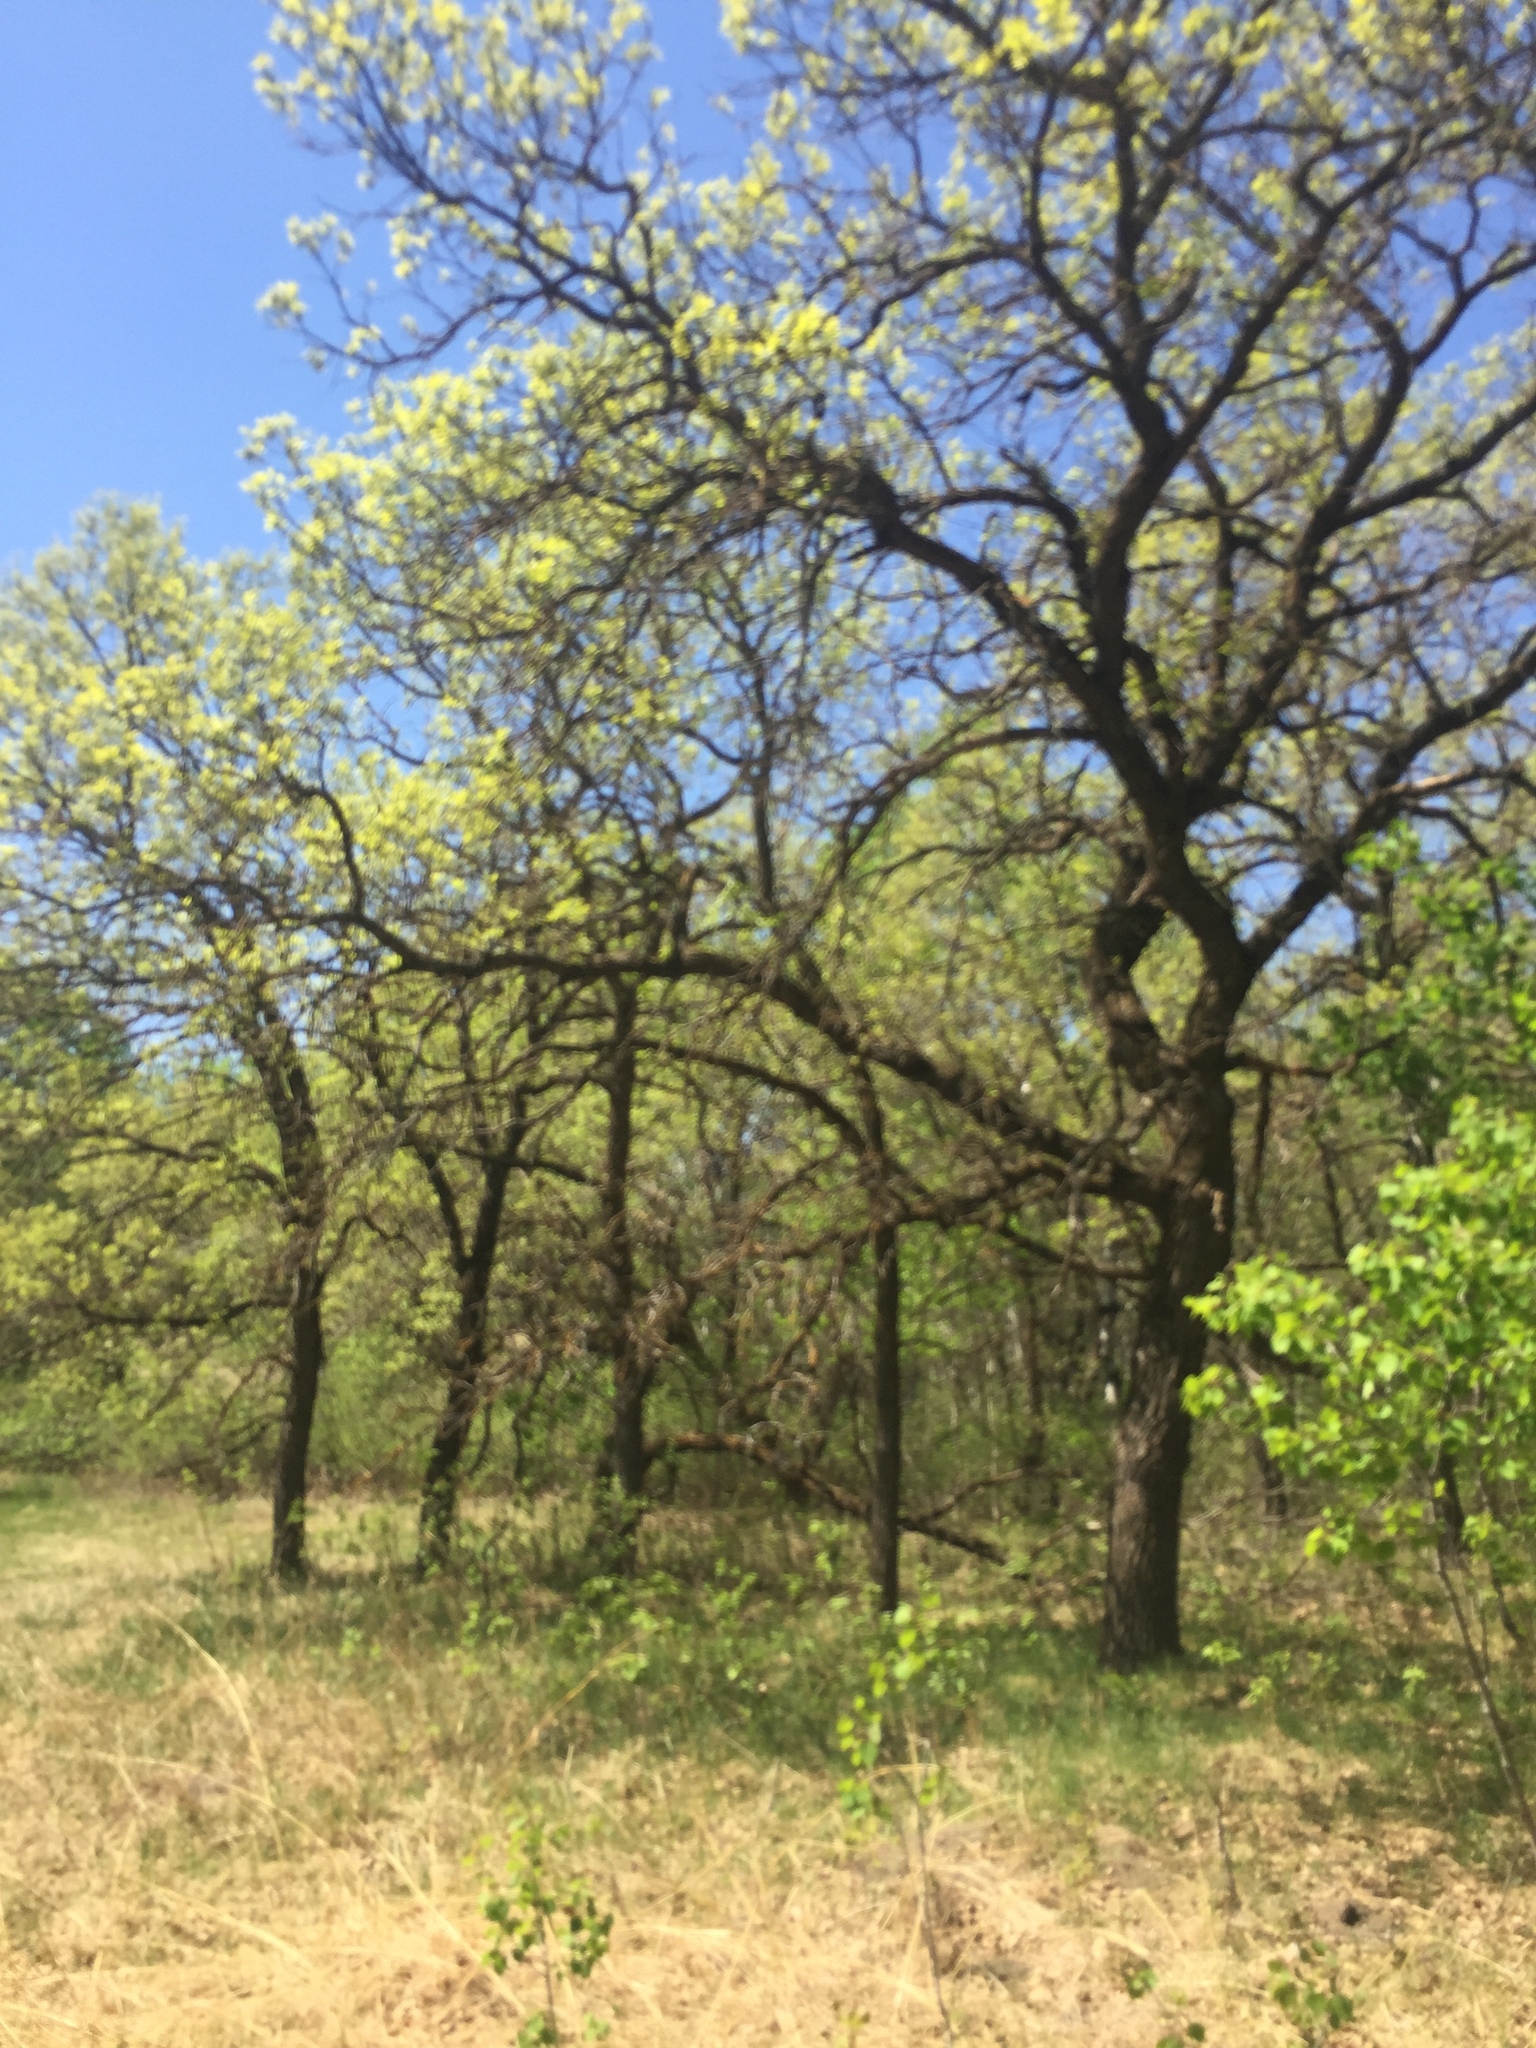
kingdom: Plantae
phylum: Tracheophyta
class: Magnoliopsida
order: Fagales
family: Fagaceae
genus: Quercus
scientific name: Quercus macrocarpa
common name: Bur oak
